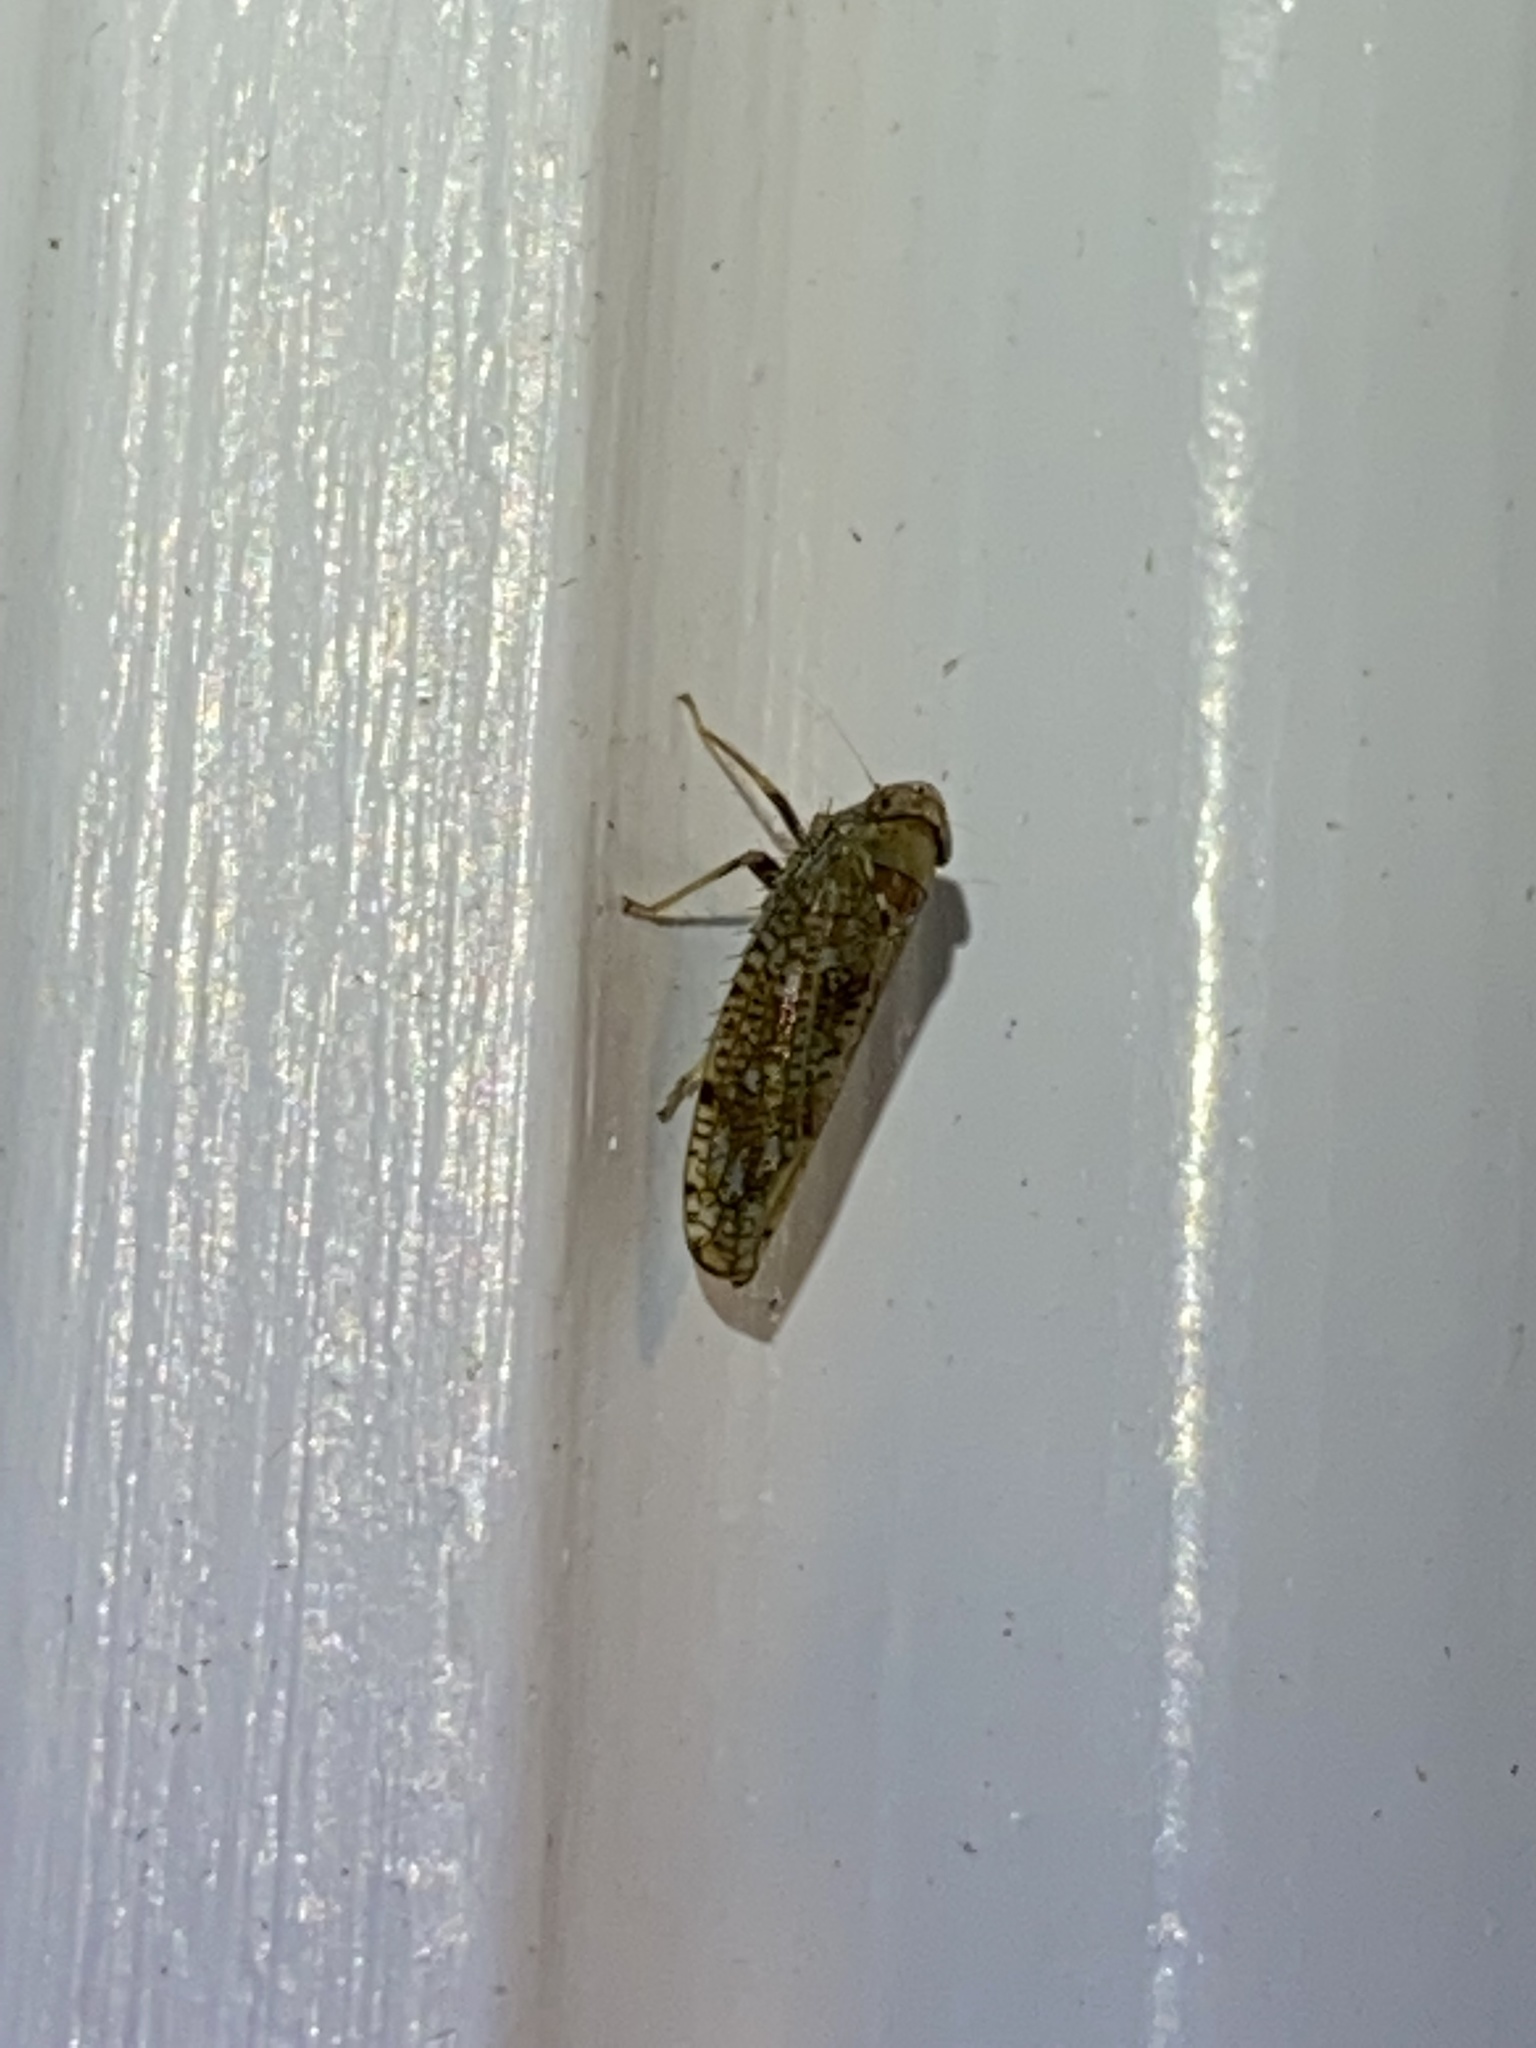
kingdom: Animalia
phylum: Arthropoda
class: Insecta
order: Hemiptera
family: Cicadellidae
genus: Orientus
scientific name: Orientus ishidae
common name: Japanese leafhopper
